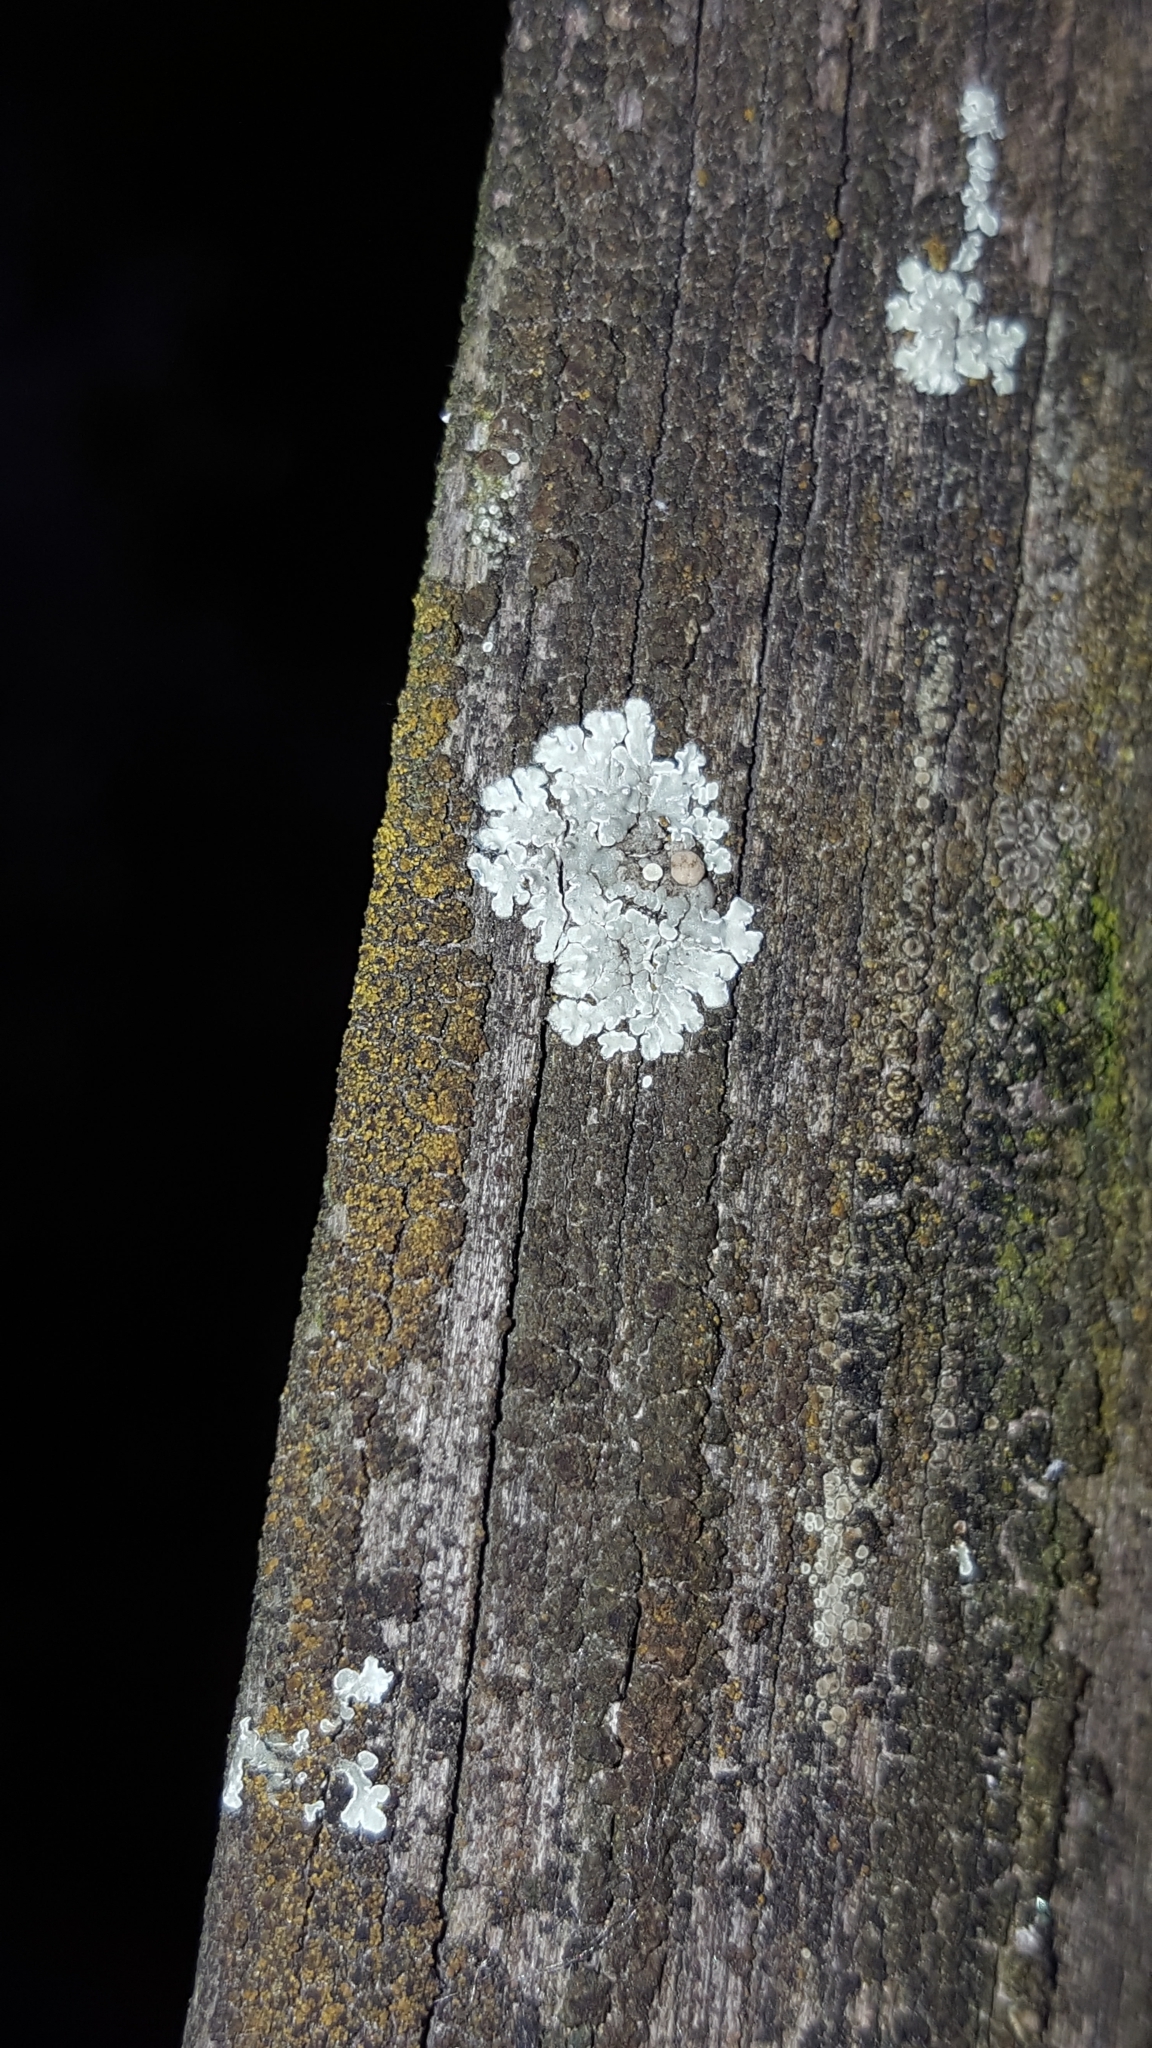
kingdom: Fungi
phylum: Ascomycota
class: Lecanoromycetes
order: Lecanorales
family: Lecanoraceae
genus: Protoparmeliopsis
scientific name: Protoparmeliopsis muralis
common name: Stonewall rim lichen
